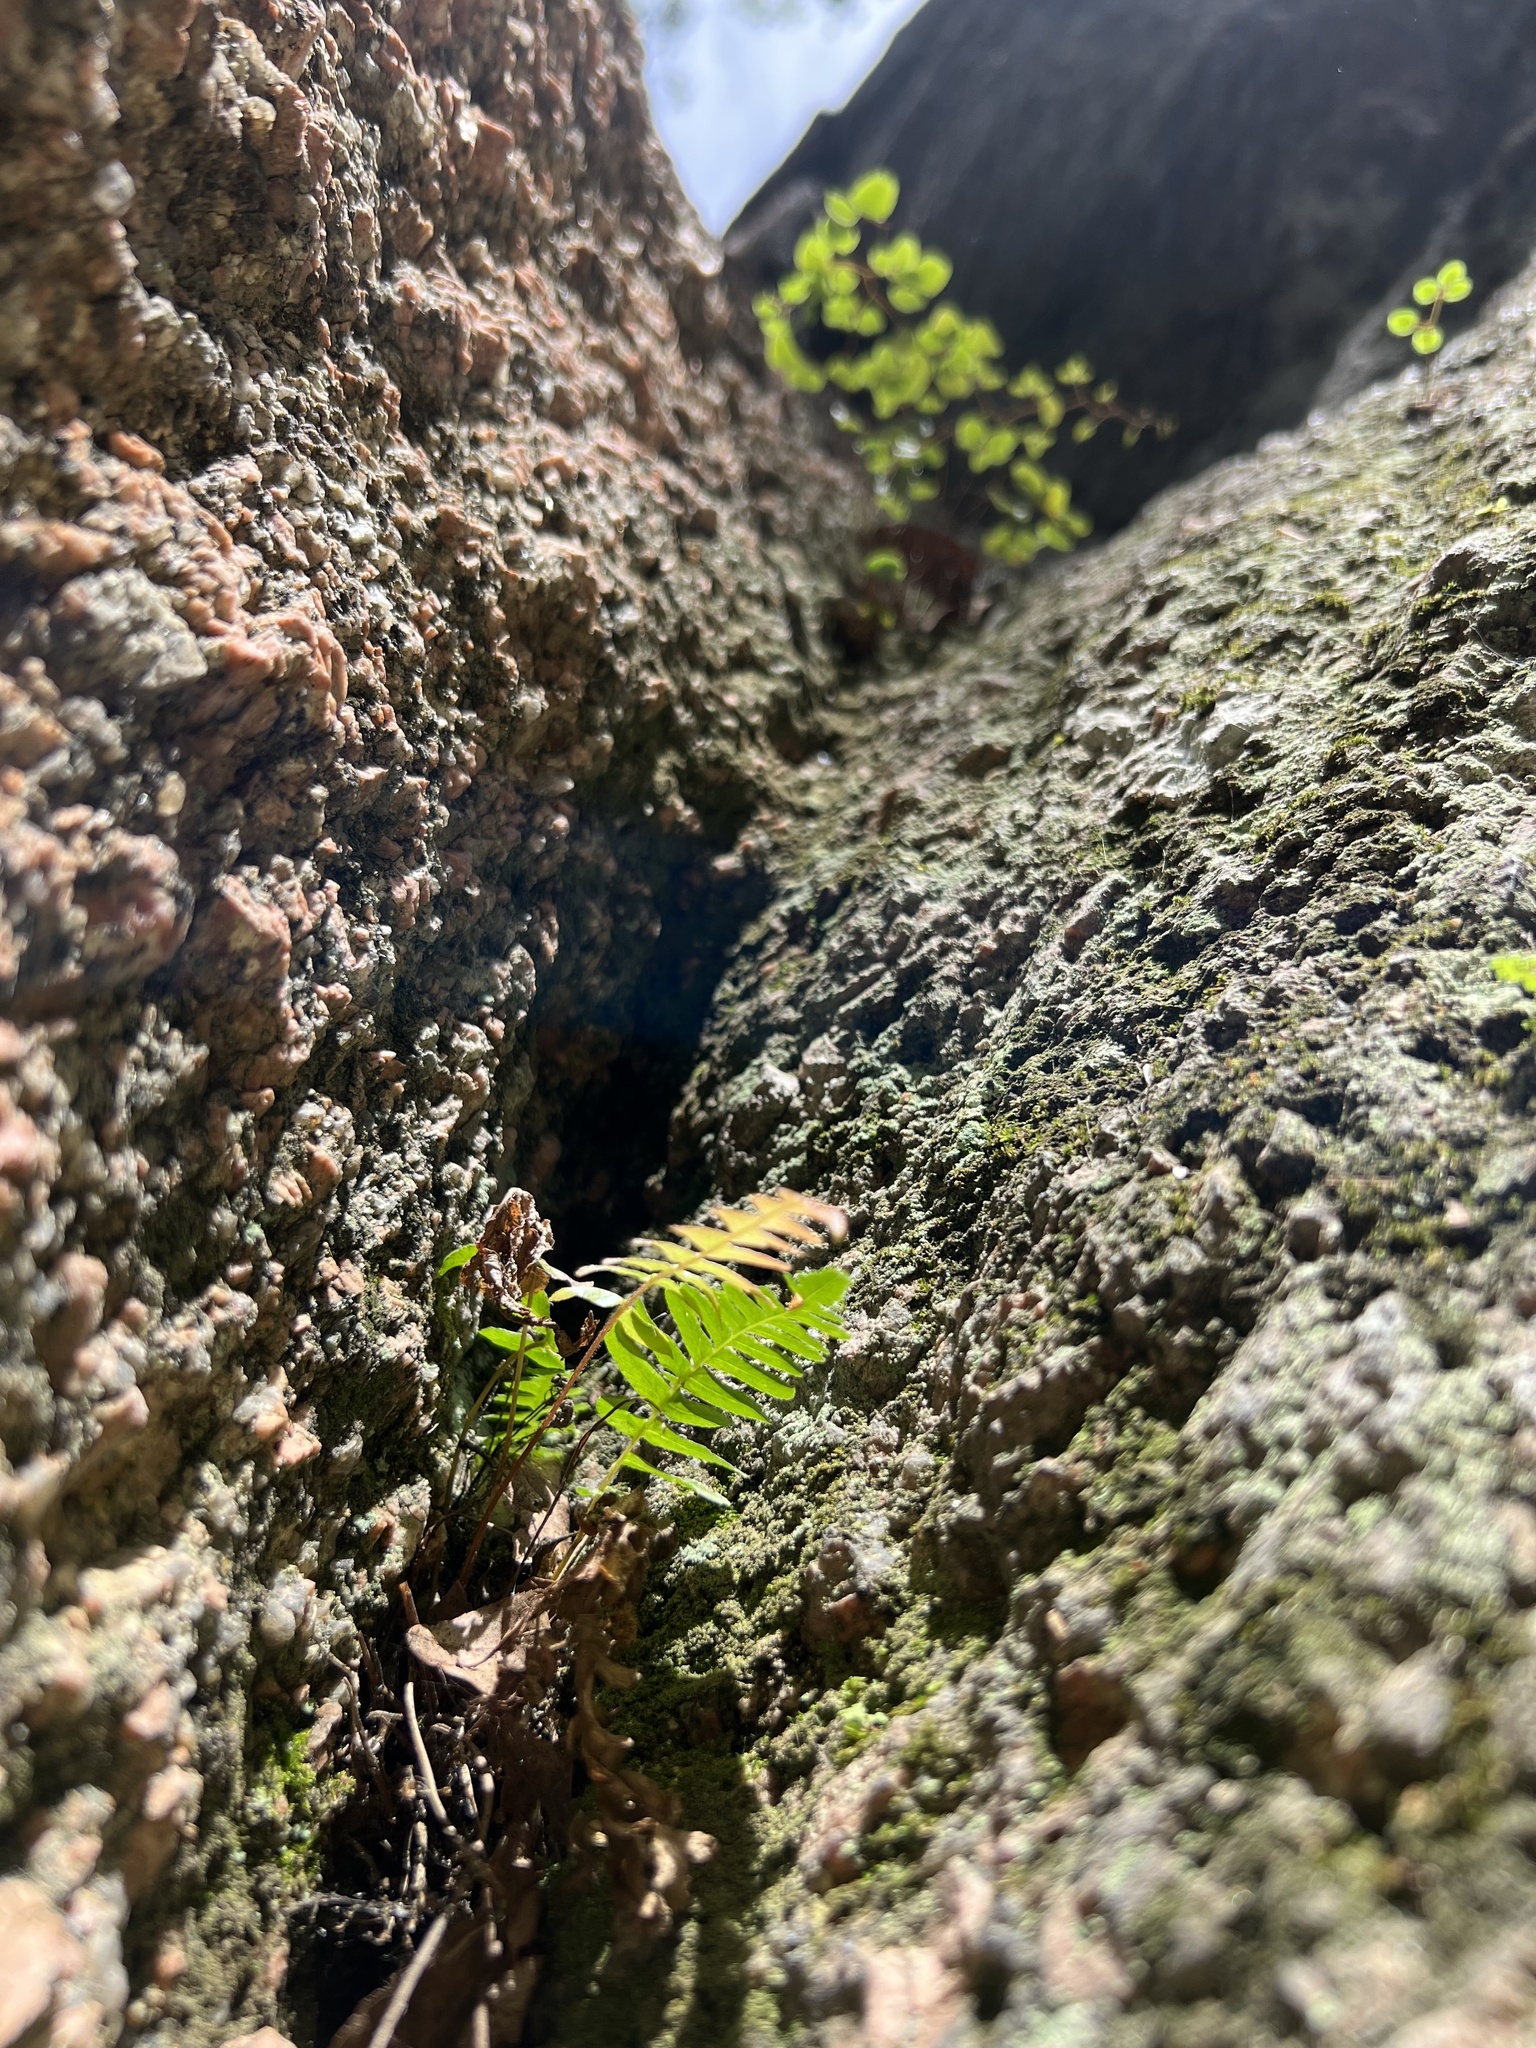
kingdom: Plantae
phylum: Tracheophyta
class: Polypodiopsida
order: Polypodiales
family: Blechnaceae
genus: Blechnum
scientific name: Blechnum appendiculatum
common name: Palm fern
